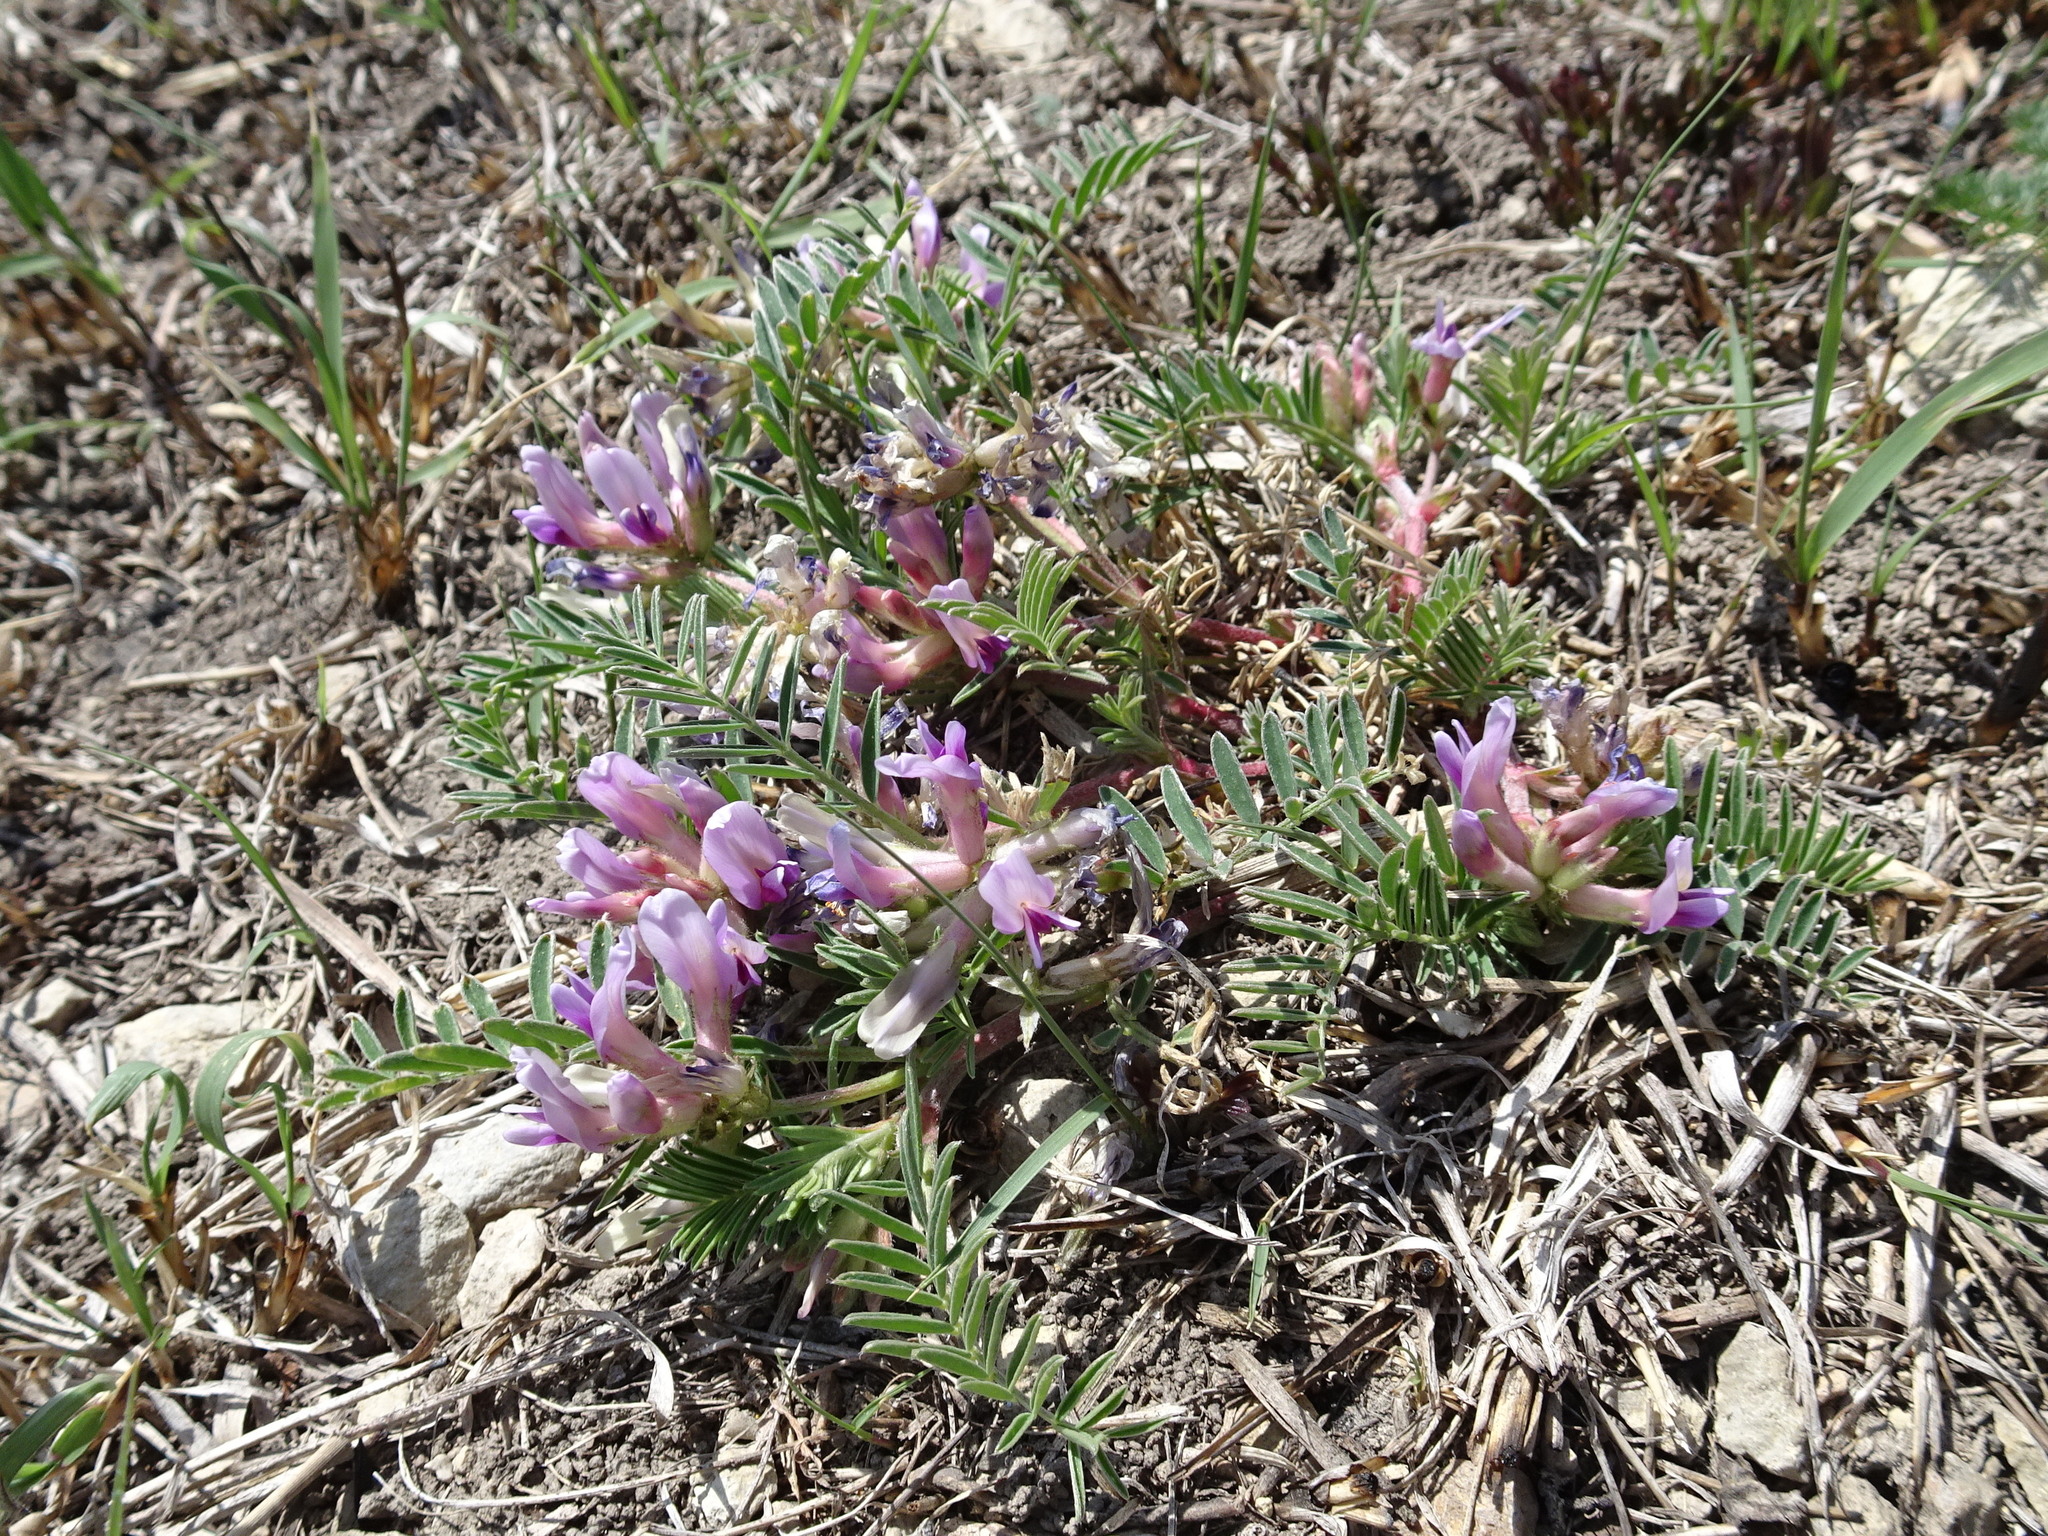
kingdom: Plantae
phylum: Tracheophyta
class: Magnoliopsida
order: Fabales
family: Fabaceae
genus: Astragalus
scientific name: Astragalus crassicarpus
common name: Ground-plum milk-vetch
